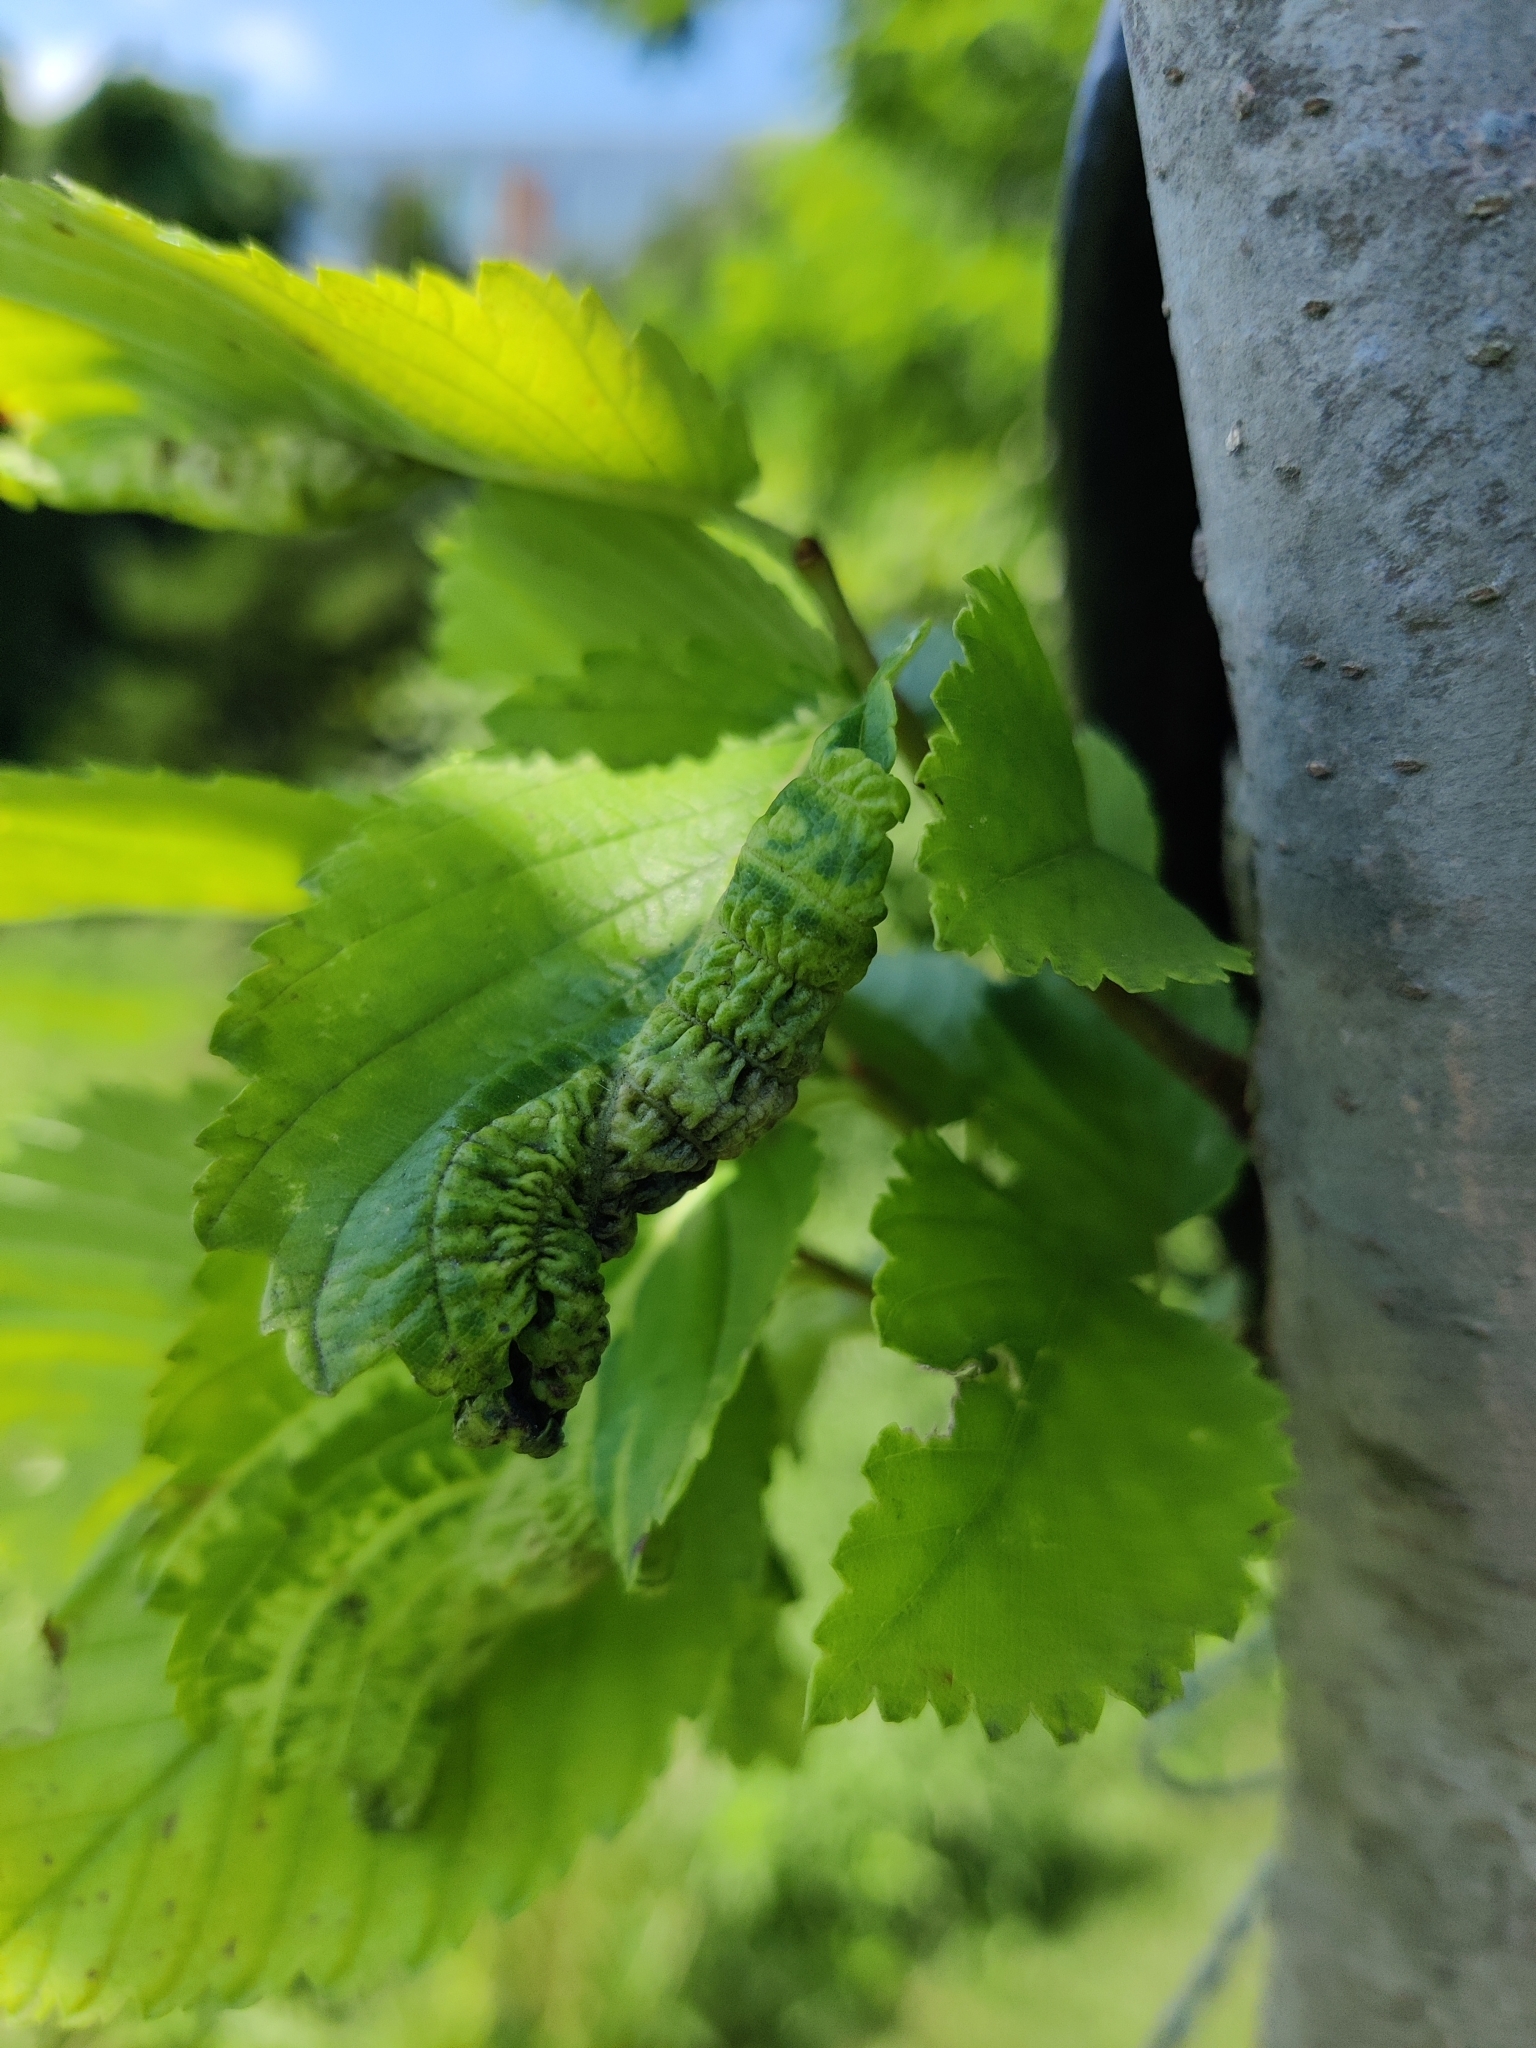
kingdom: Animalia
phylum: Arthropoda
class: Insecta
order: Hemiptera
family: Aphididae
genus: Eriosoma
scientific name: Eriosoma americanum
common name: Woolly elm aphid
